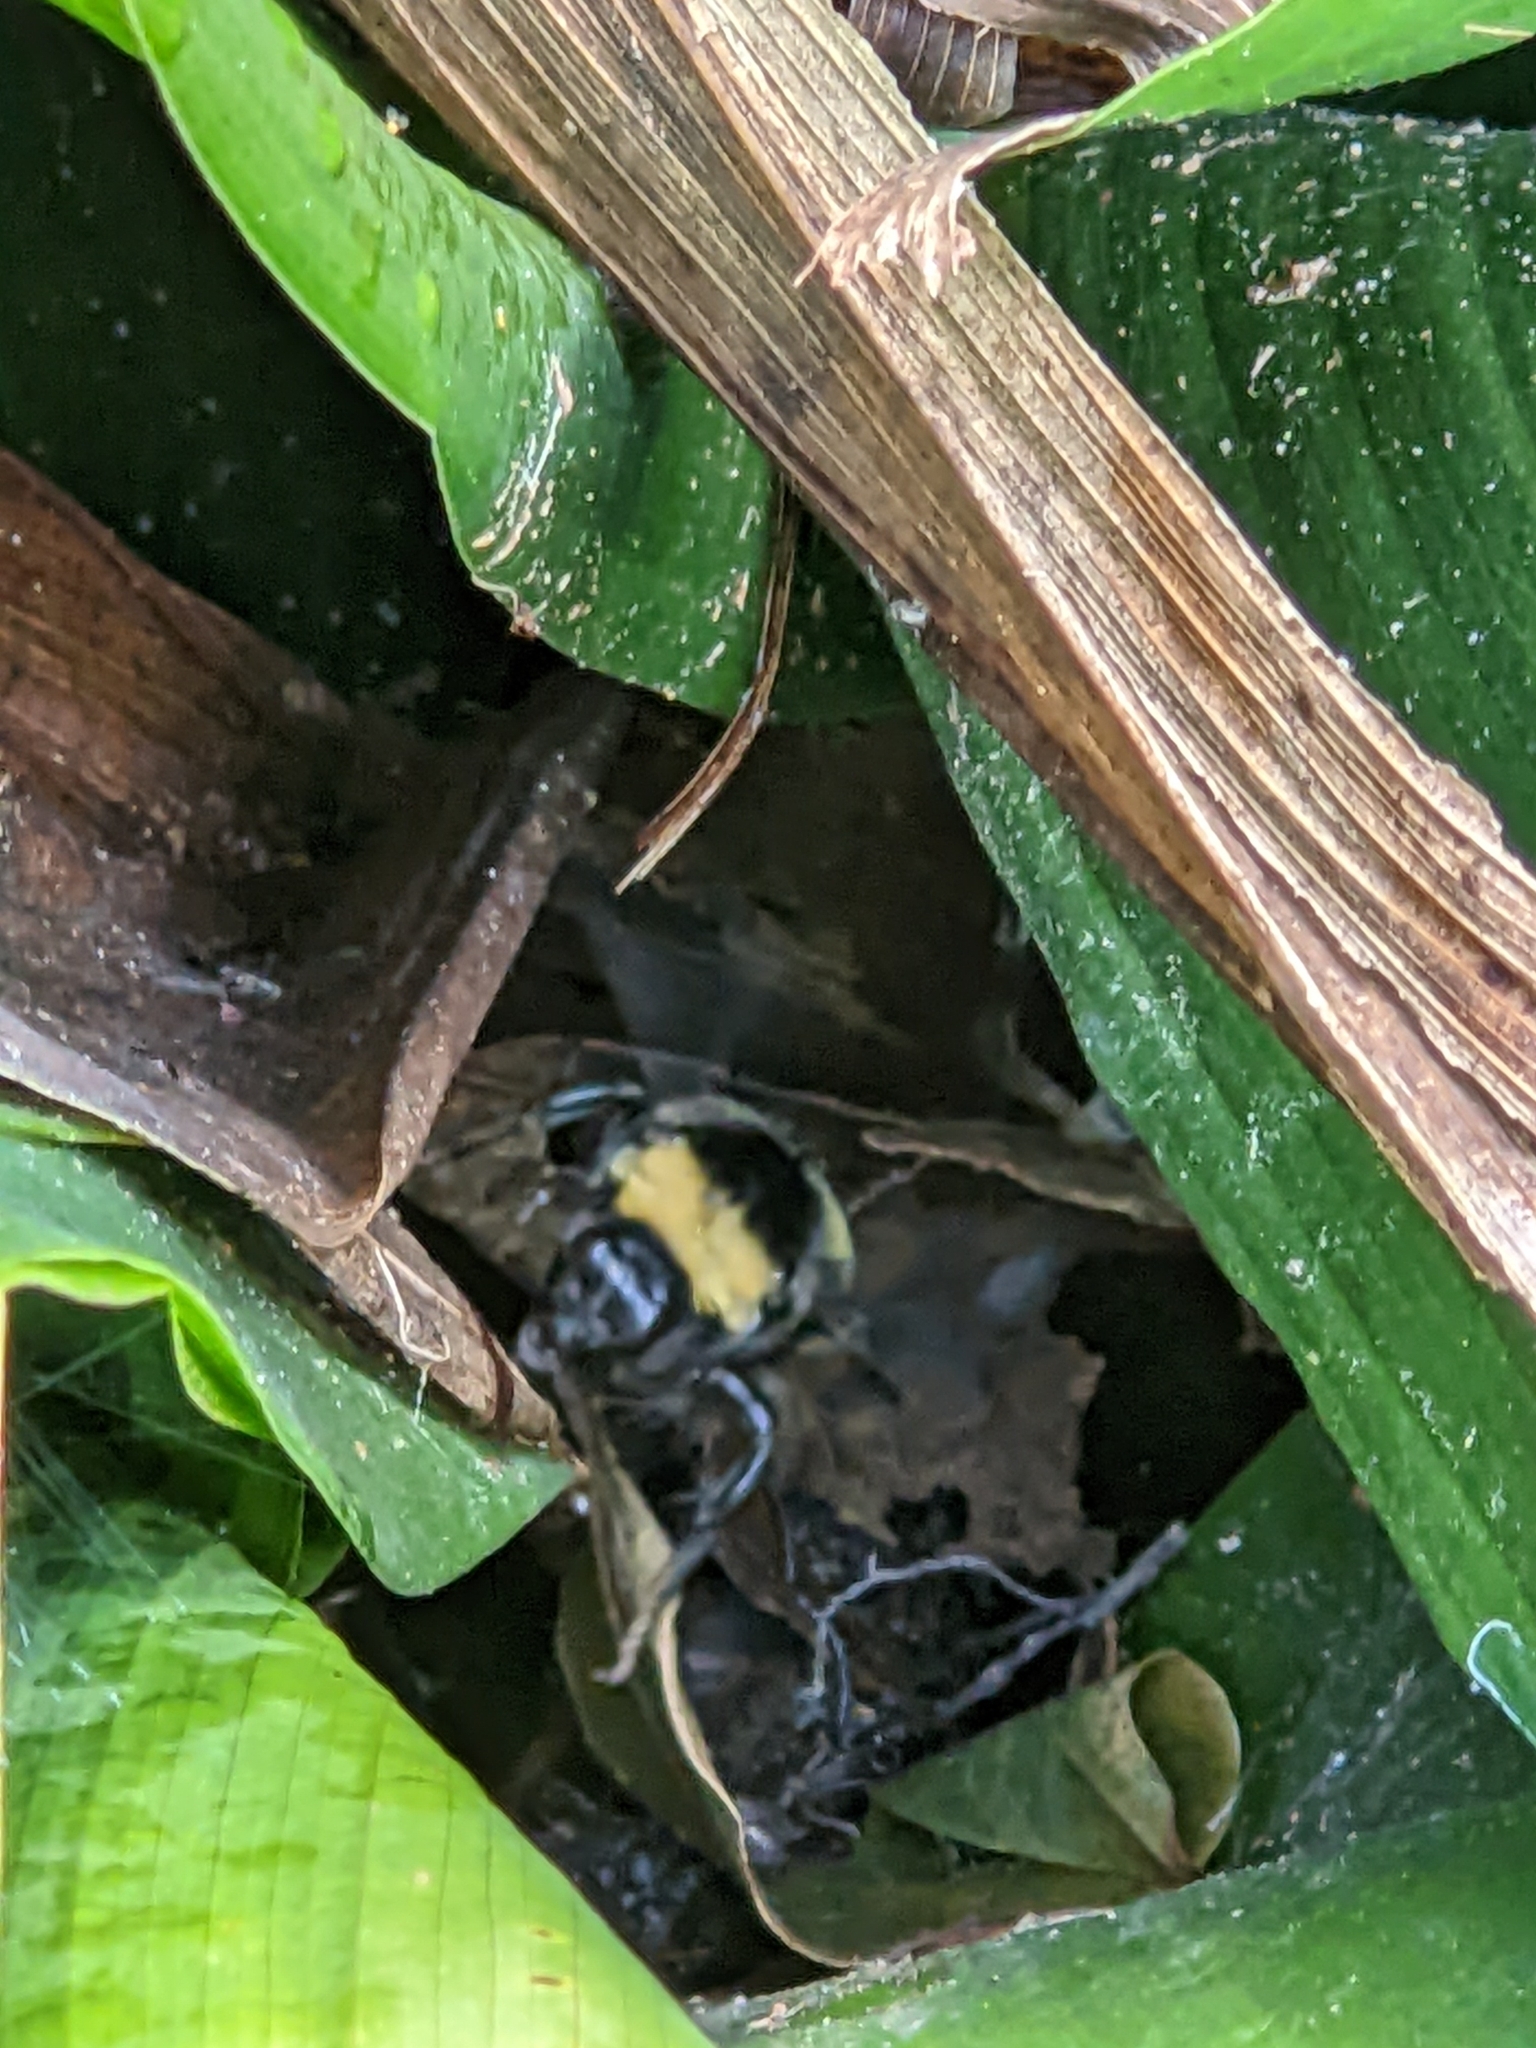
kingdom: Animalia
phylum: Arthropoda
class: Insecta
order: Hymenoptera
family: Apidae
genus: Bombus
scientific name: Bombus pensylvanicus
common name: Bumble bee
